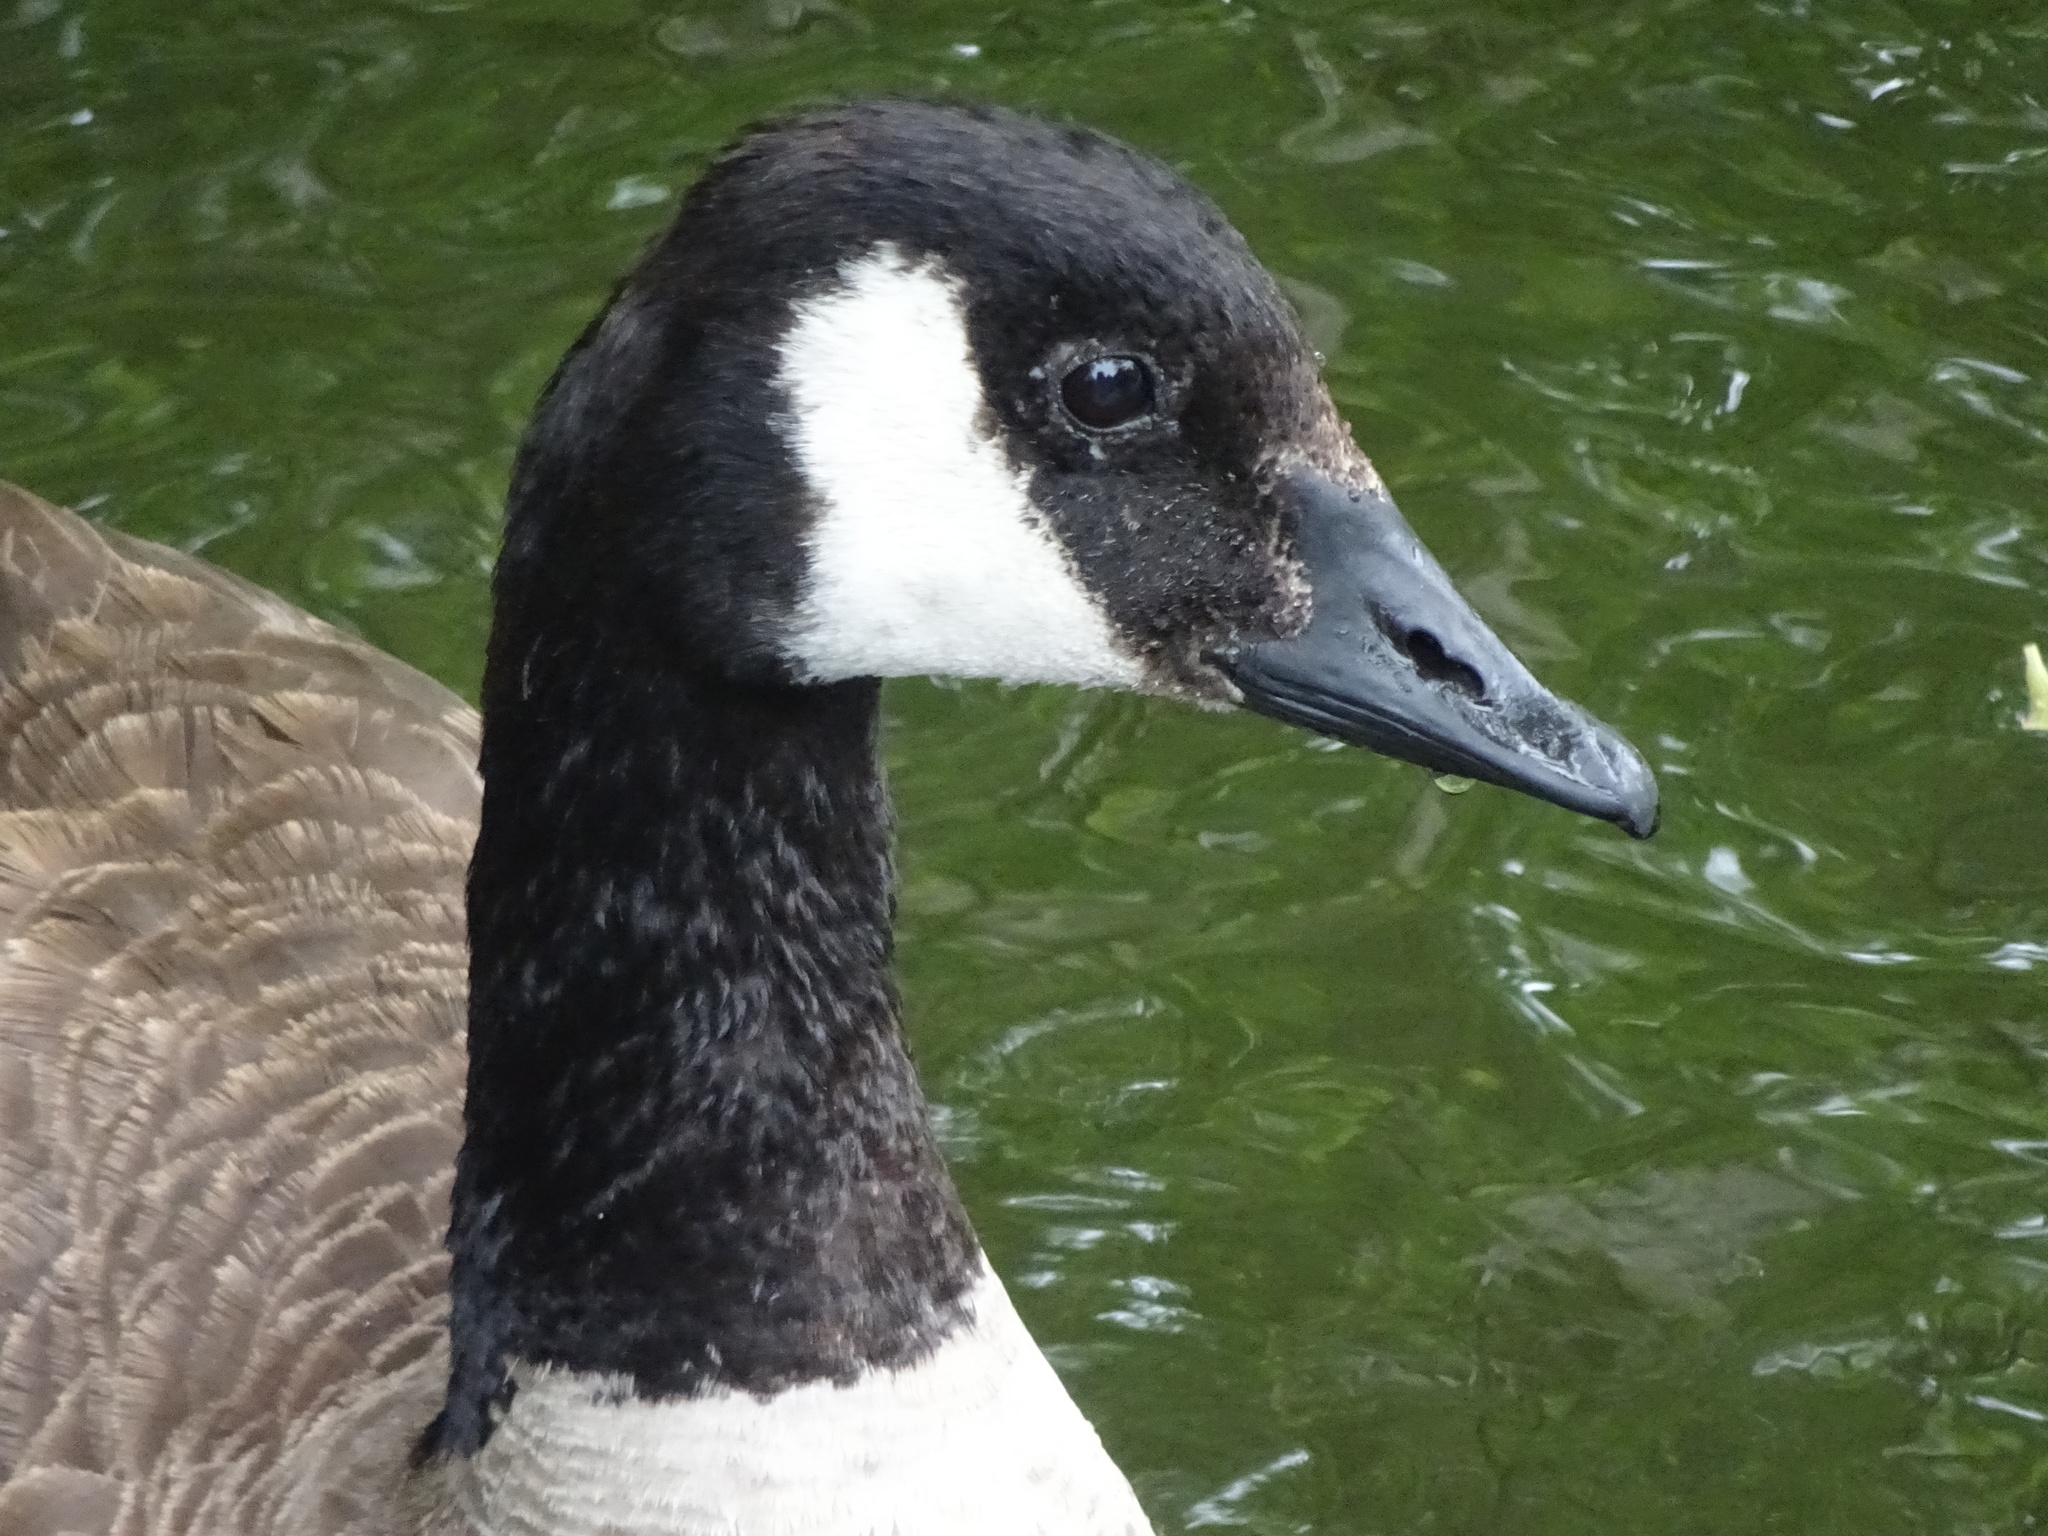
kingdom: Animalia
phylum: Chordata
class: Aves
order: Anseriformes
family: Anatidae
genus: Branta
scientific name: Branta canadensis
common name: Canada goose
